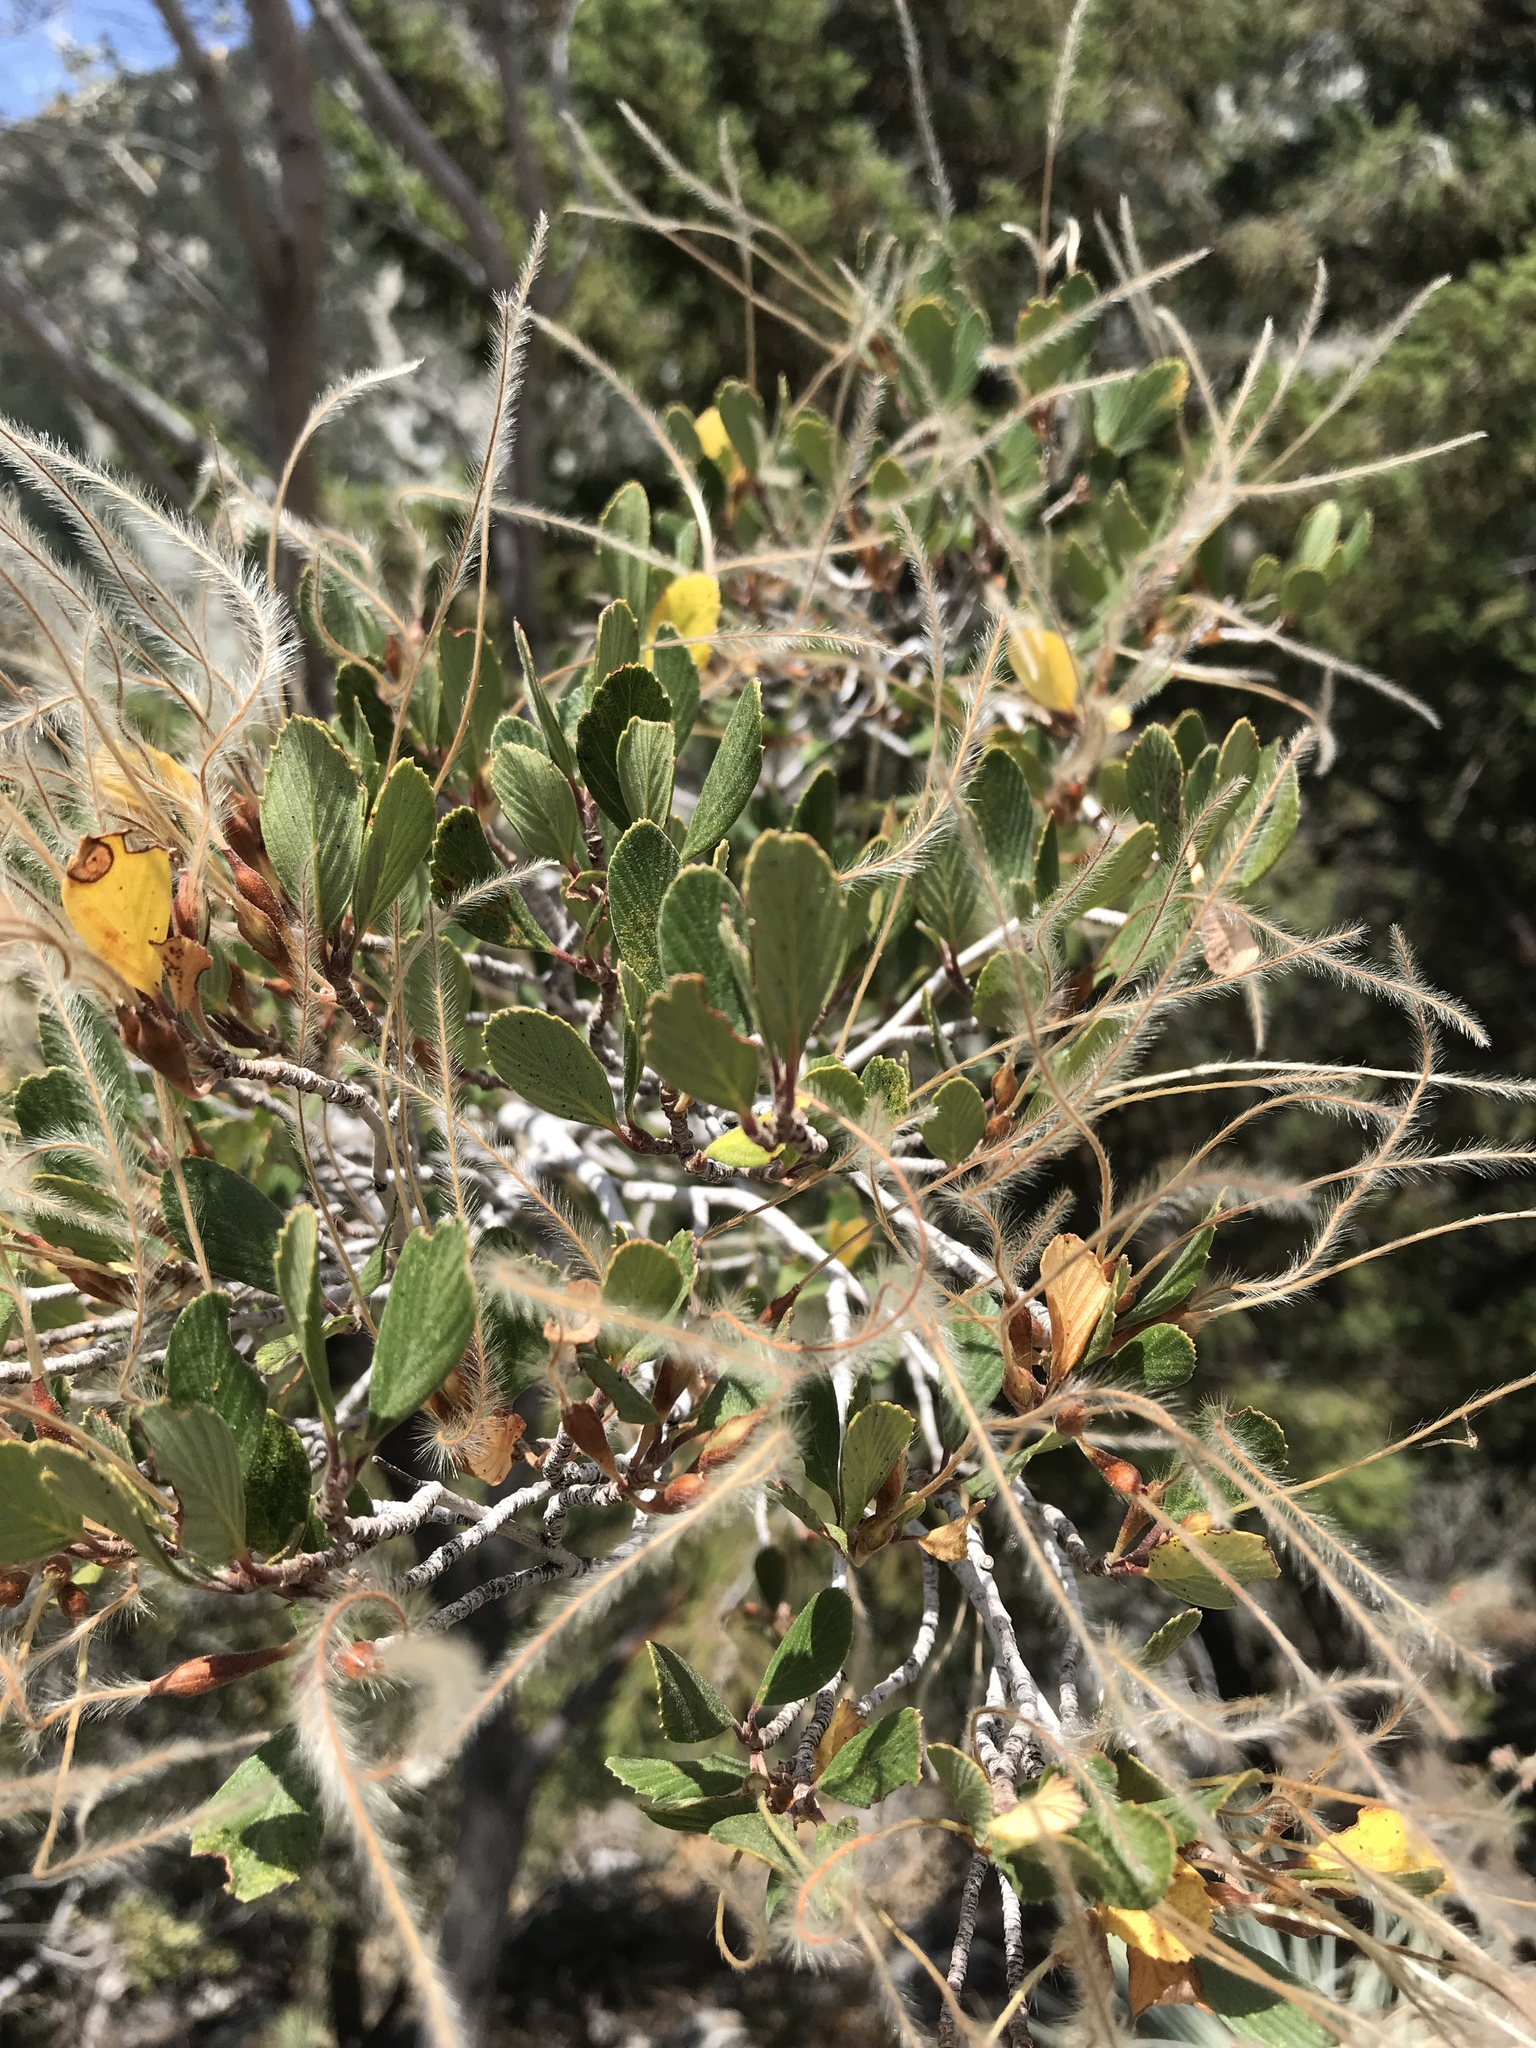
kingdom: Plantae
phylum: Tracheophyta
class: Magnoliopsida
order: Rosales
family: Rosaceae
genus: Cercocarpus
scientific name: Cercocarpus betuloides
